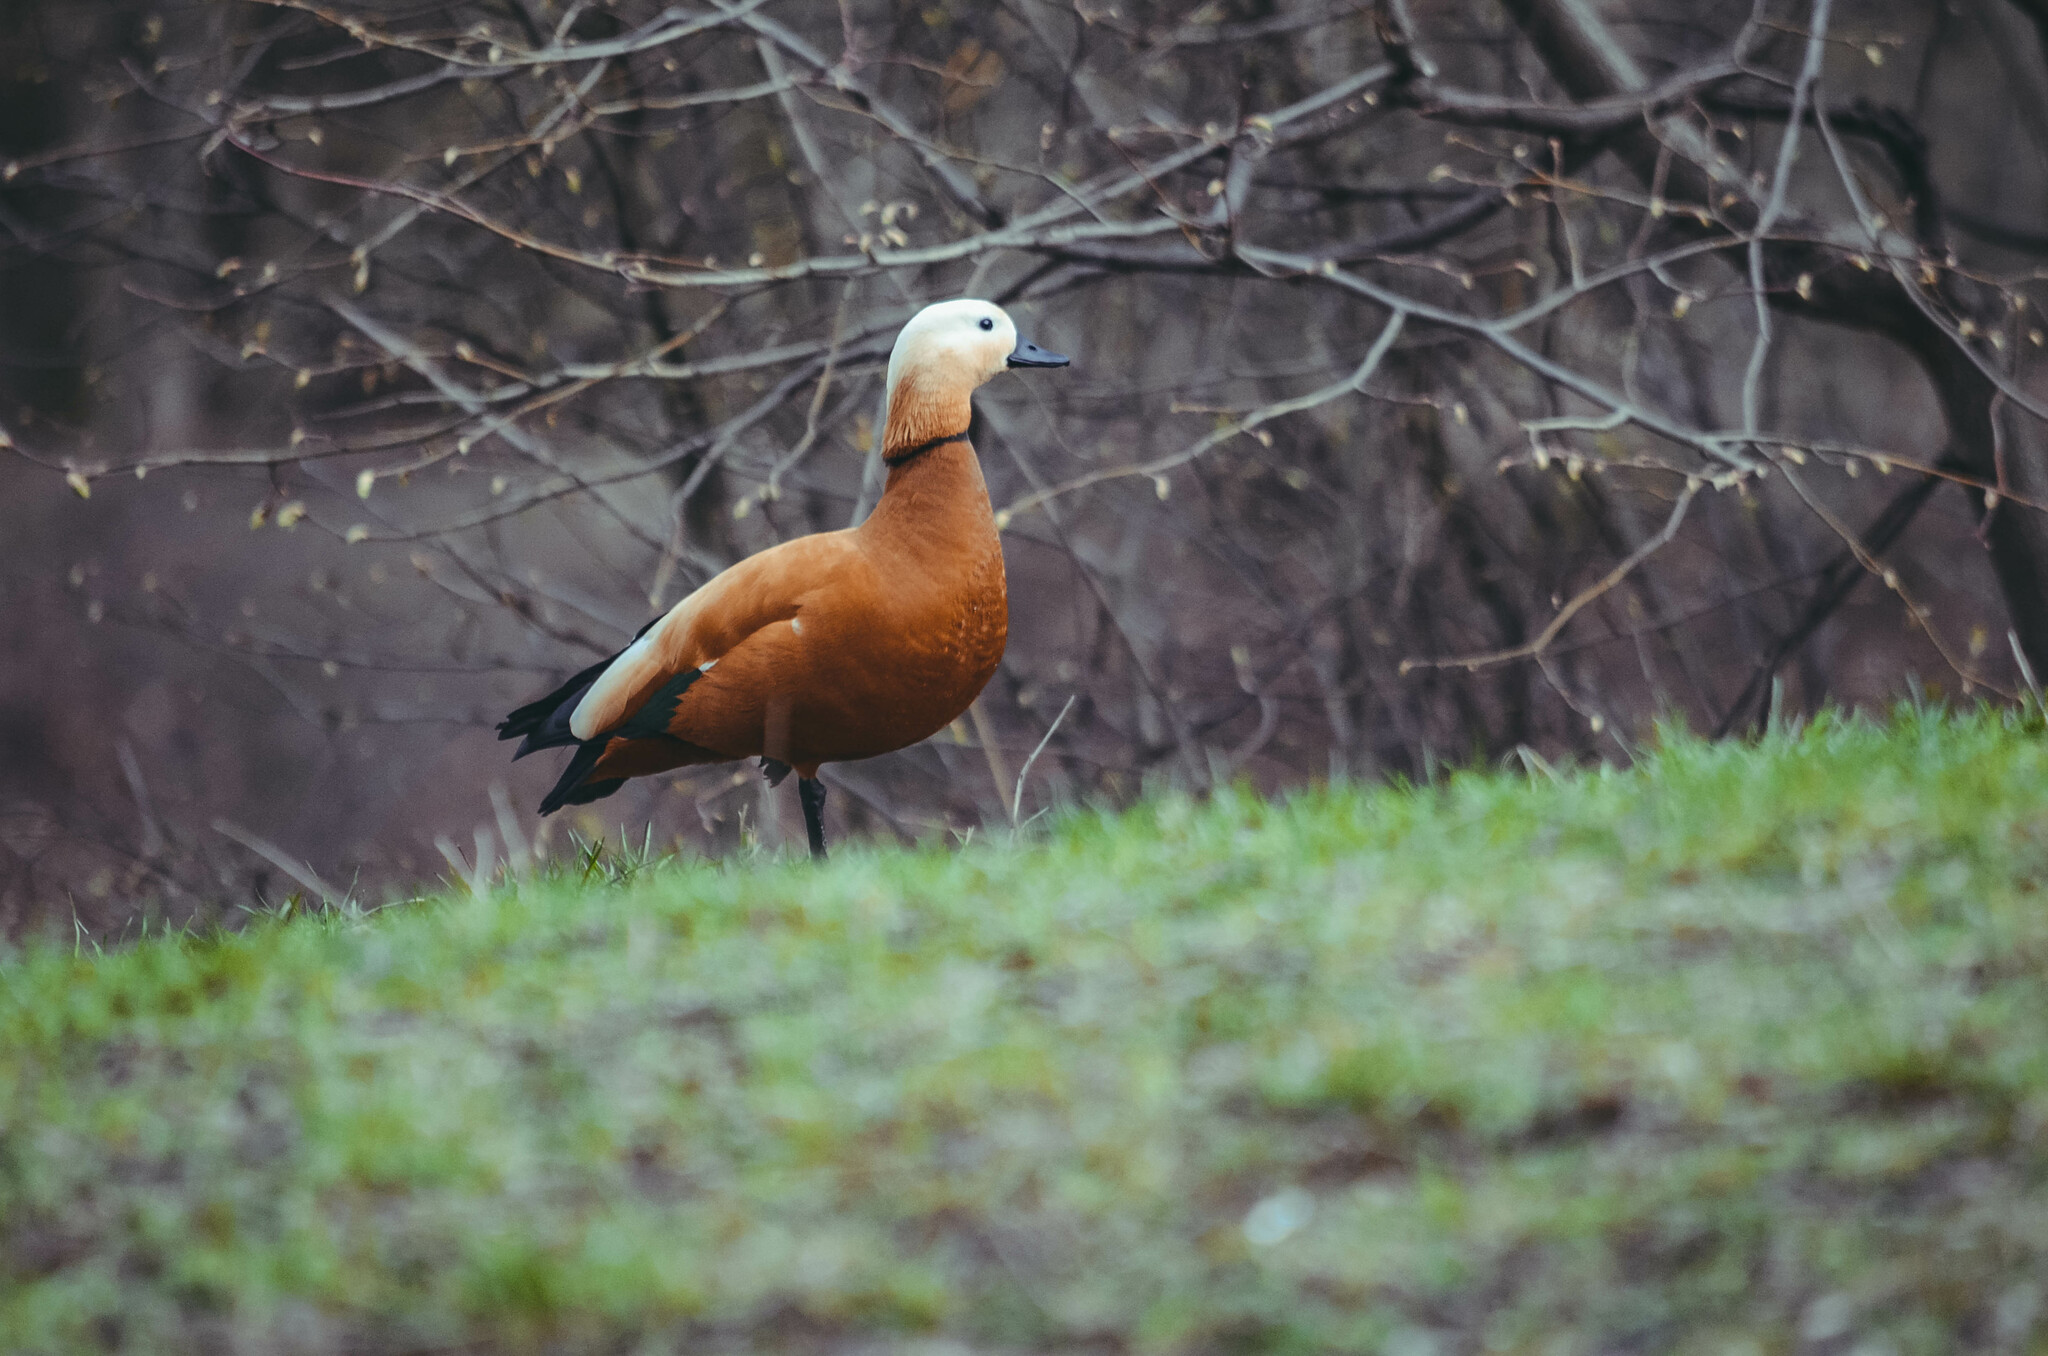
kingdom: Animalia
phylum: Chordata
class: Aves
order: Anseriformes
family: Anatidae
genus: Tadorna
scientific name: Tadorna ferruginea
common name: Ruddy shelduck
